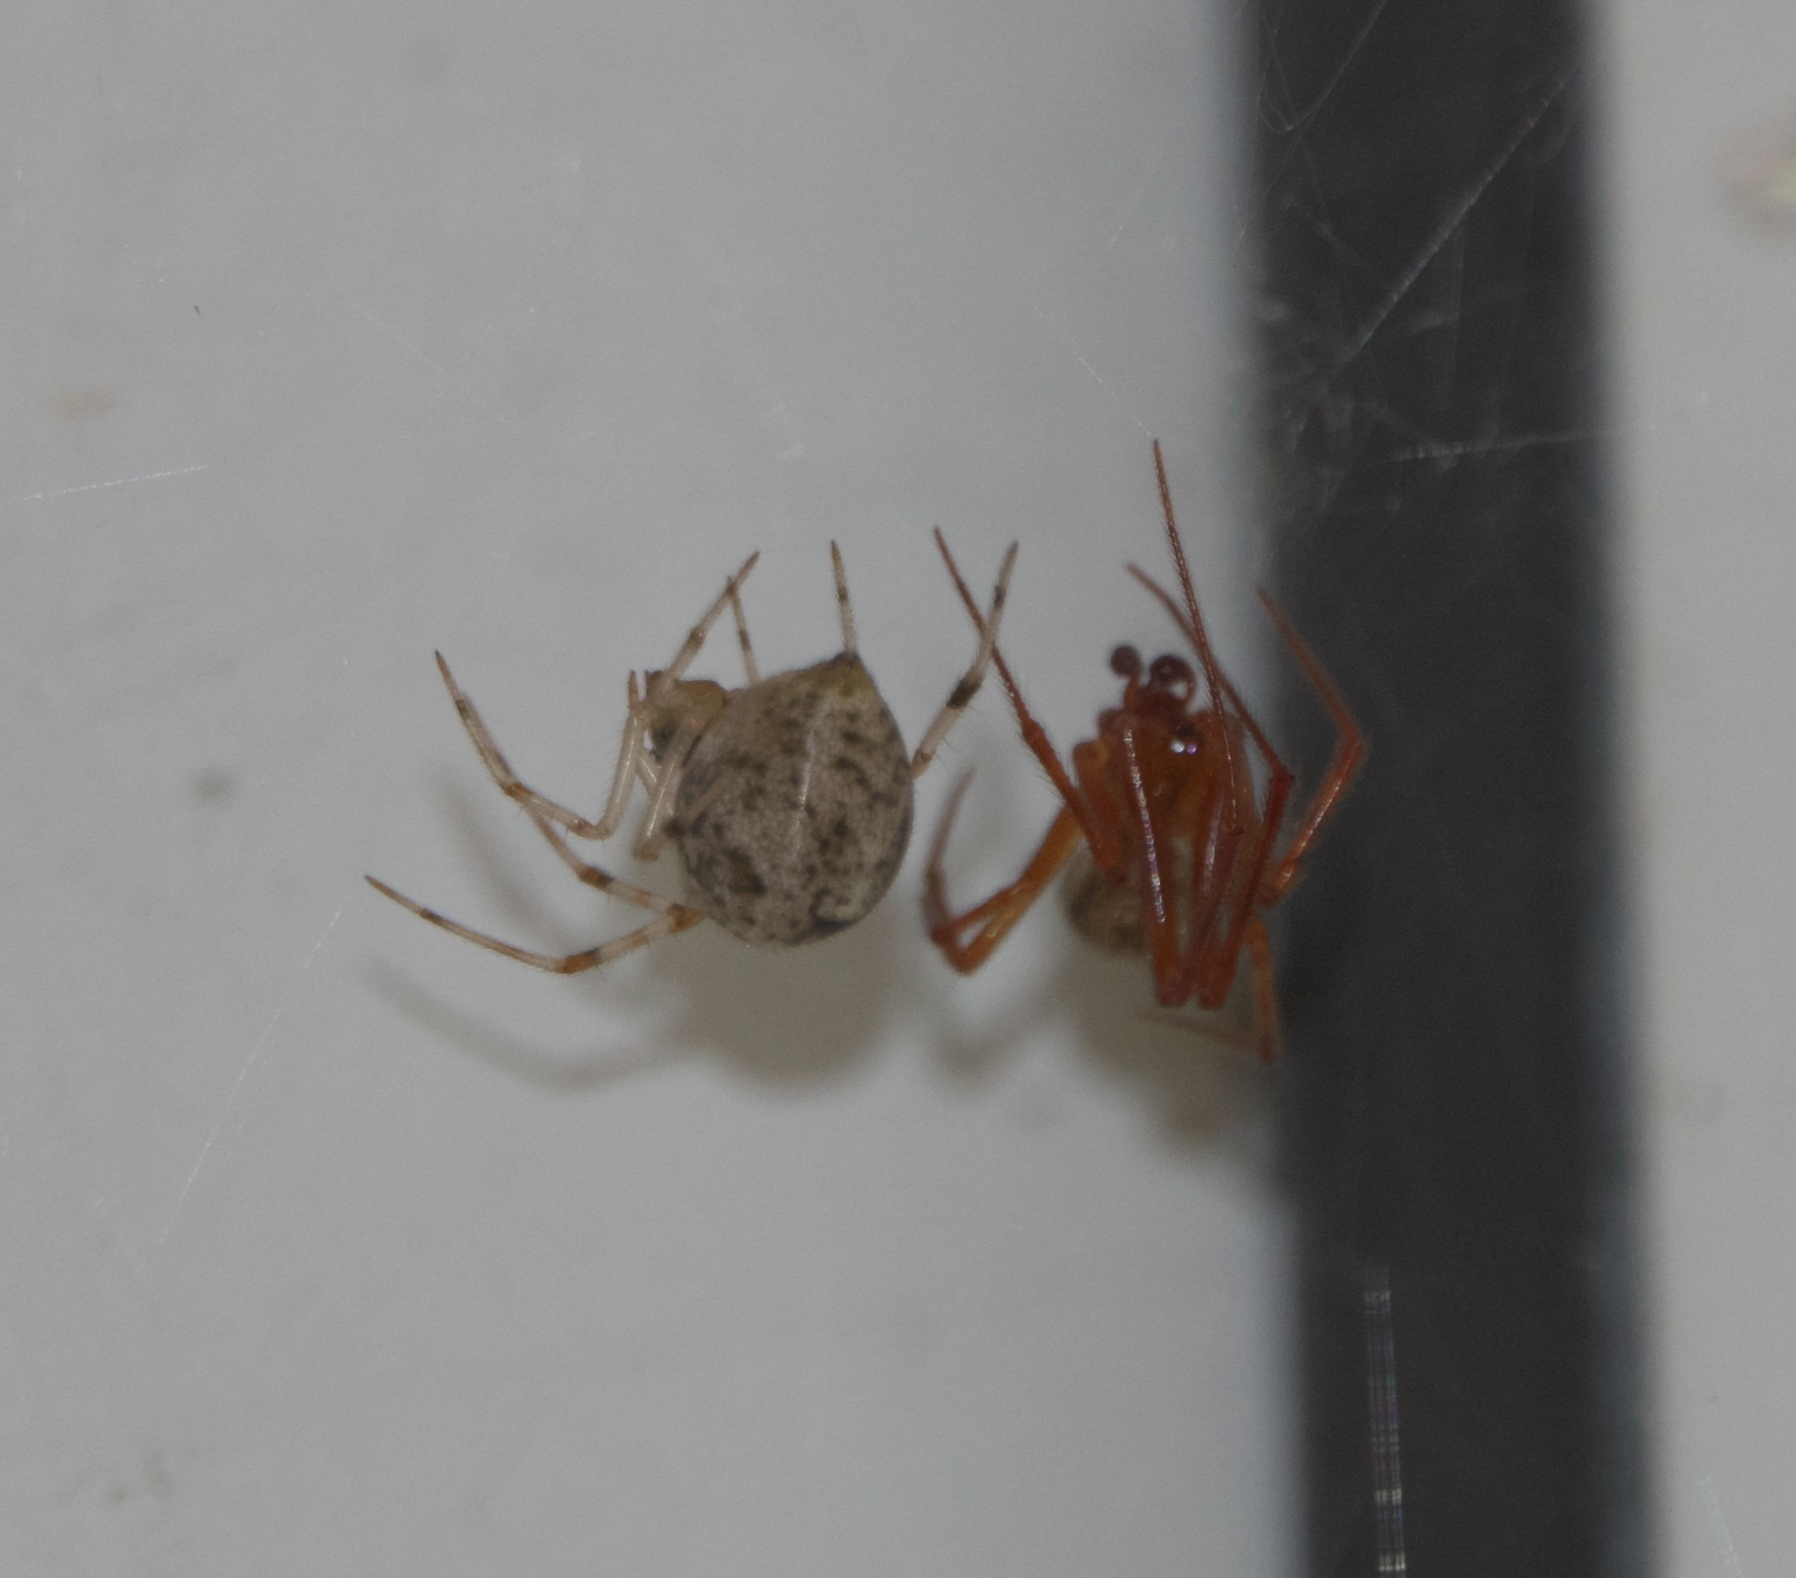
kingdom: Animalia
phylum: Arthropoda
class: Arachnida
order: Araneae
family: Theridiidae
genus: Parasteatoda
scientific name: Parasteatoda tepidariorum
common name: Common house spider
